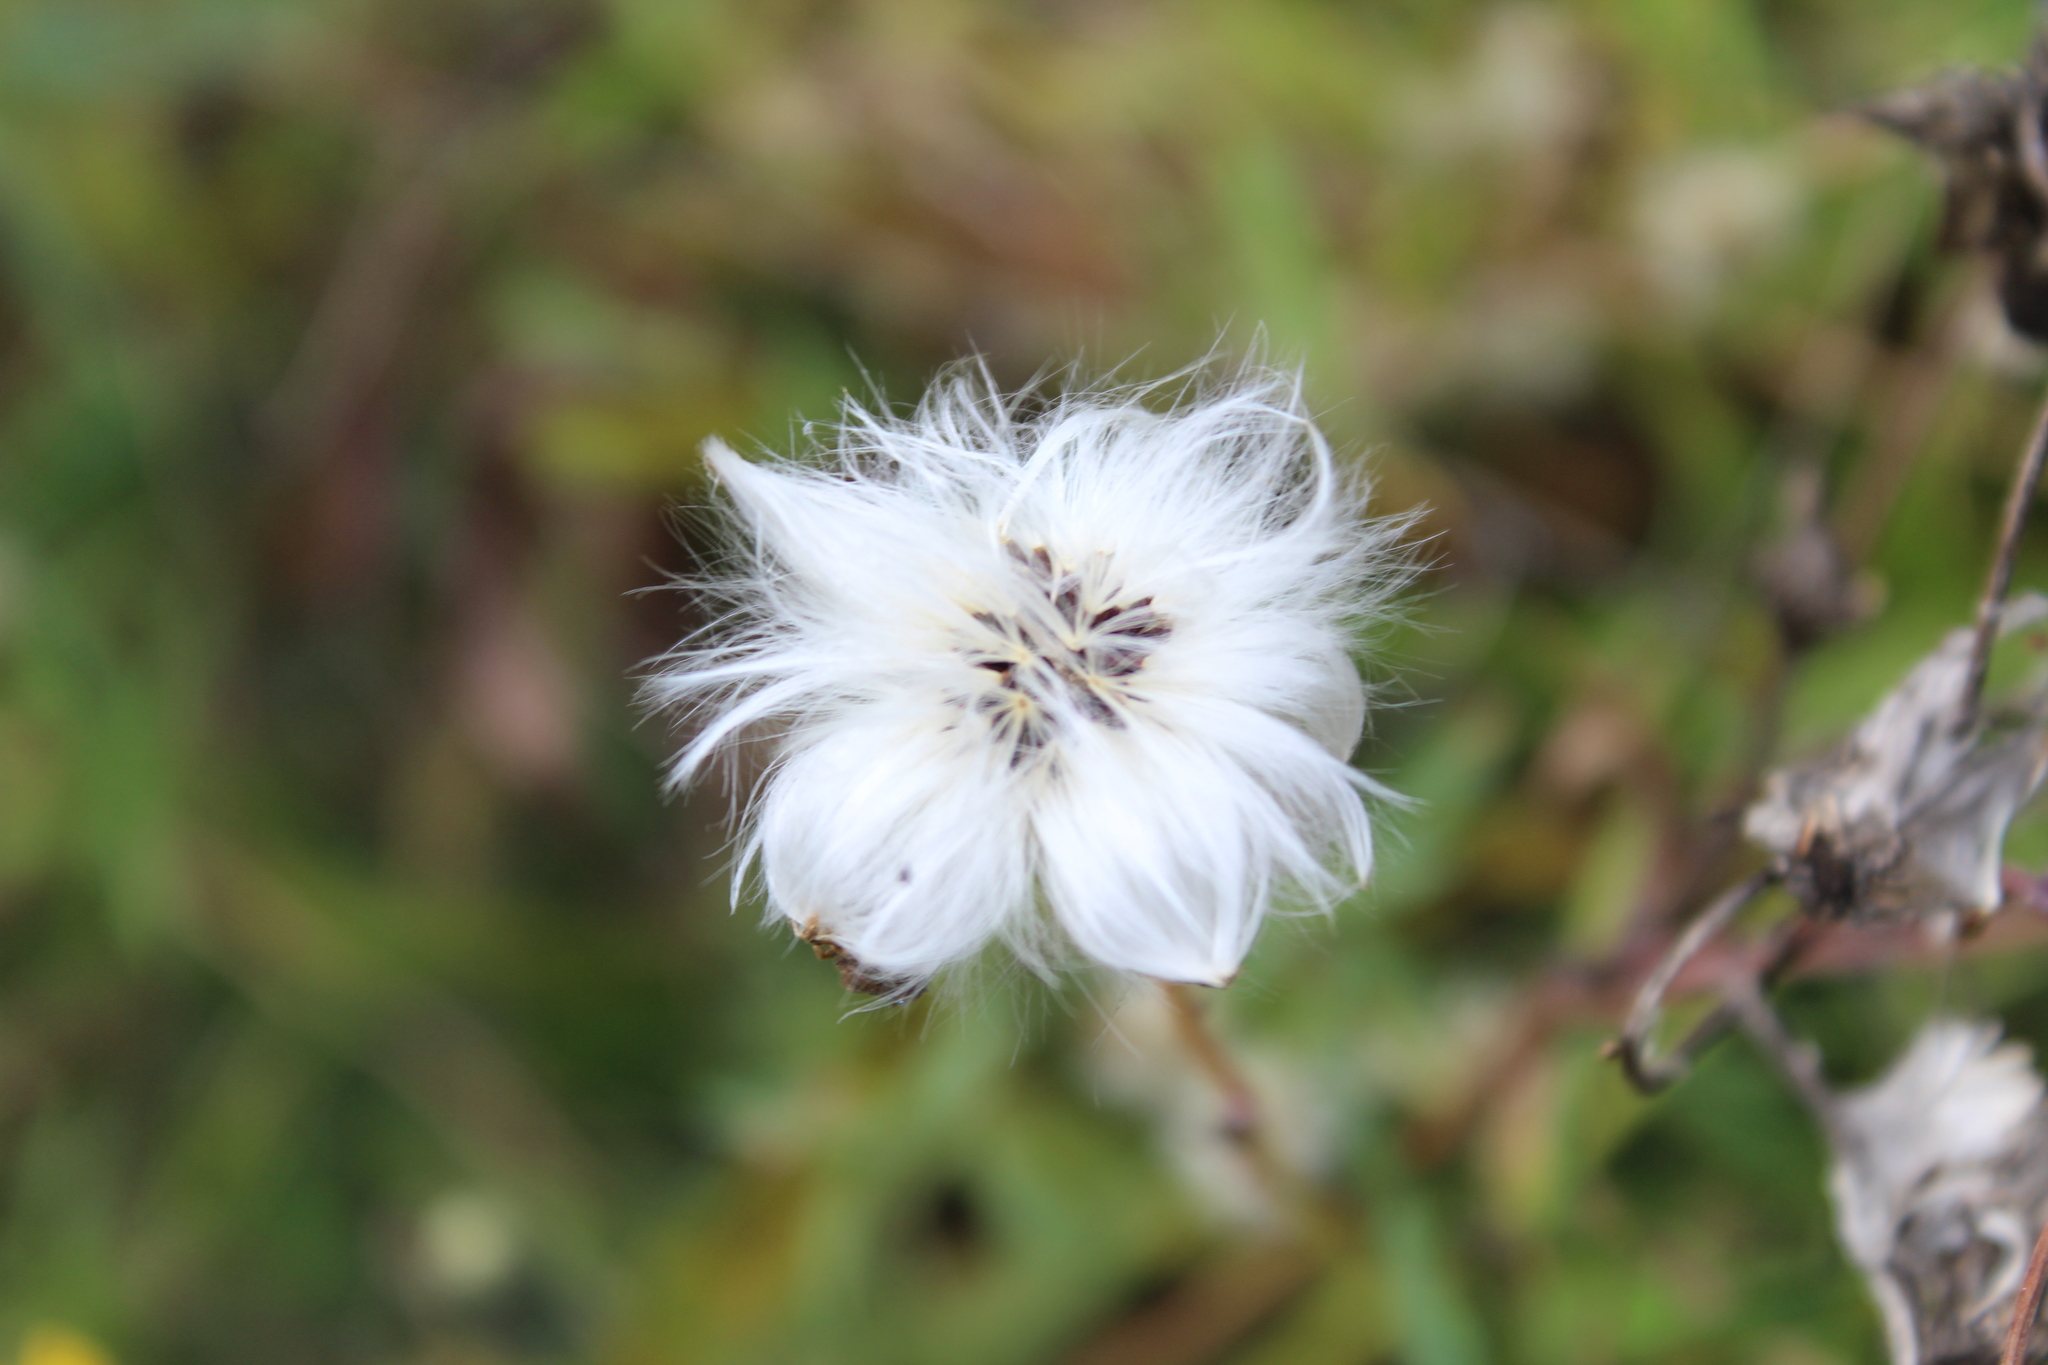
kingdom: Plantae
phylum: Tracheophyta
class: Magnoliopsida
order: Asterales
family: Asteraceae
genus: Tussilago
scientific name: Tussilago farfara
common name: Coltsfoot
